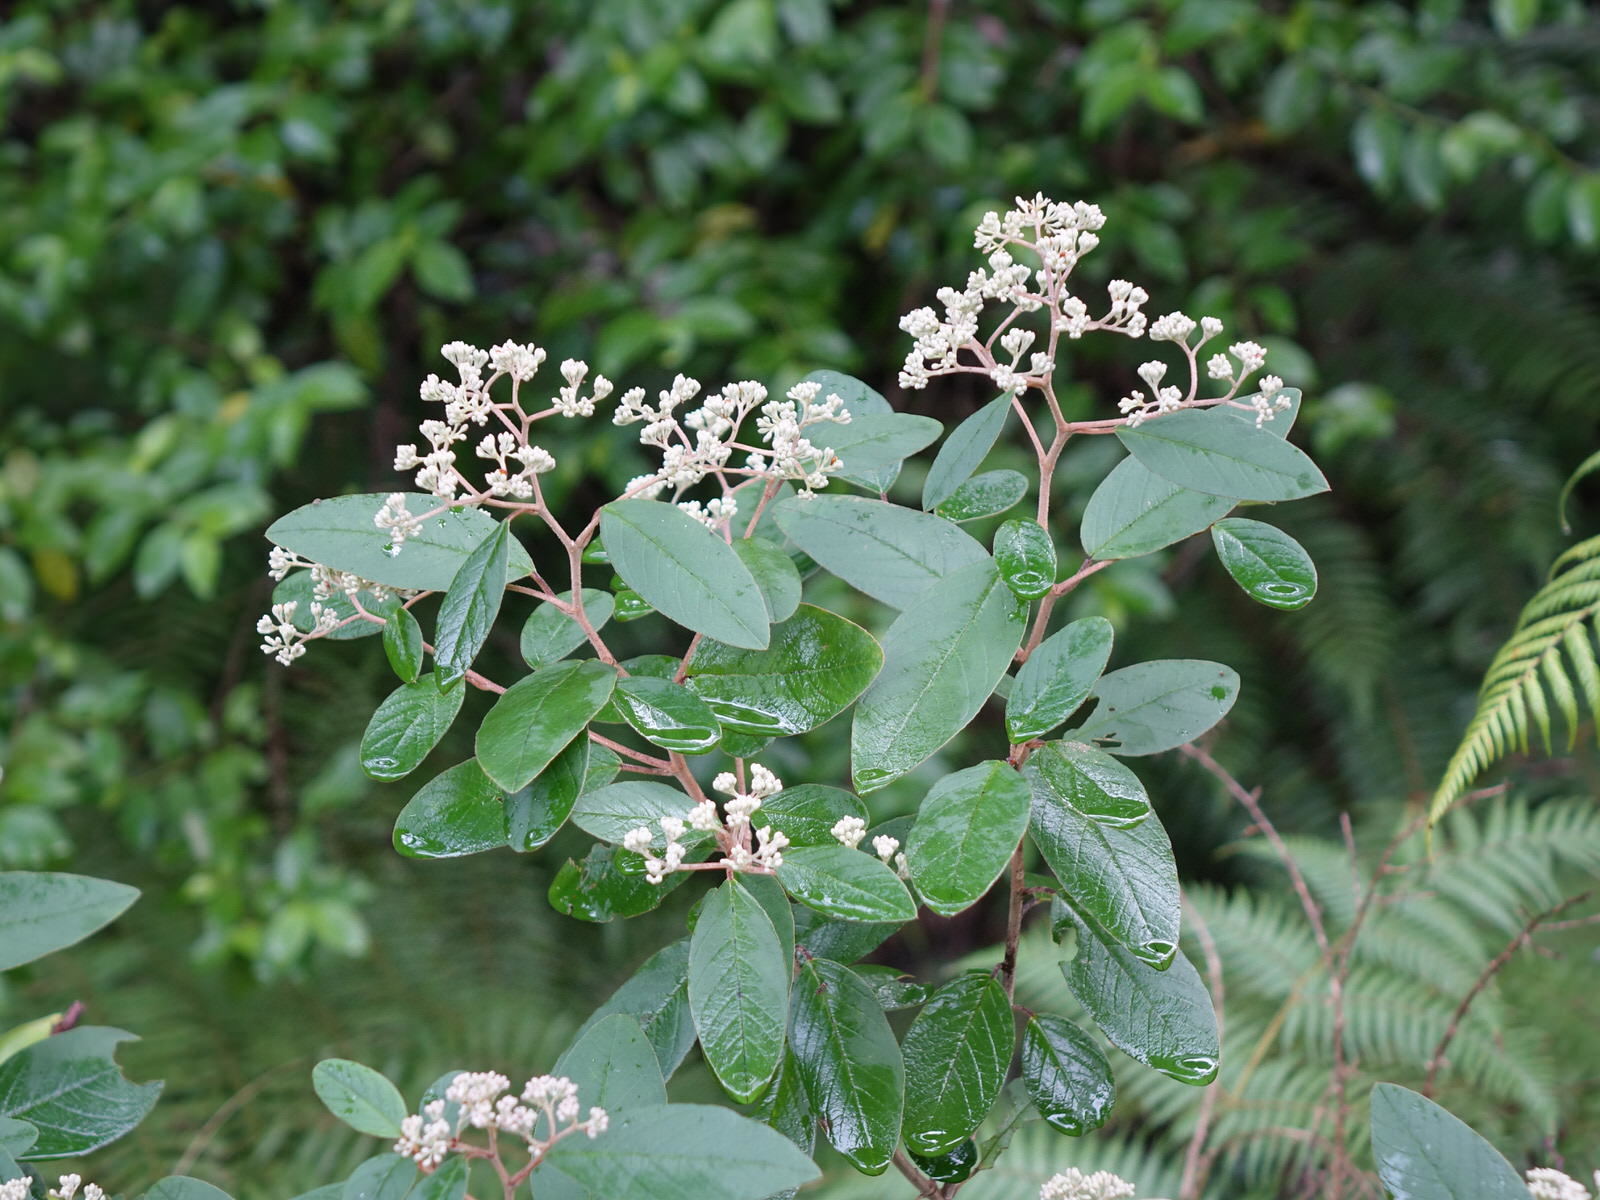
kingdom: Plantae
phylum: Tracheophyta
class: Magnoliopsida
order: Rosales
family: Rhamnaceae
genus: Pomaderris
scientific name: Pomaderris kumeraho
